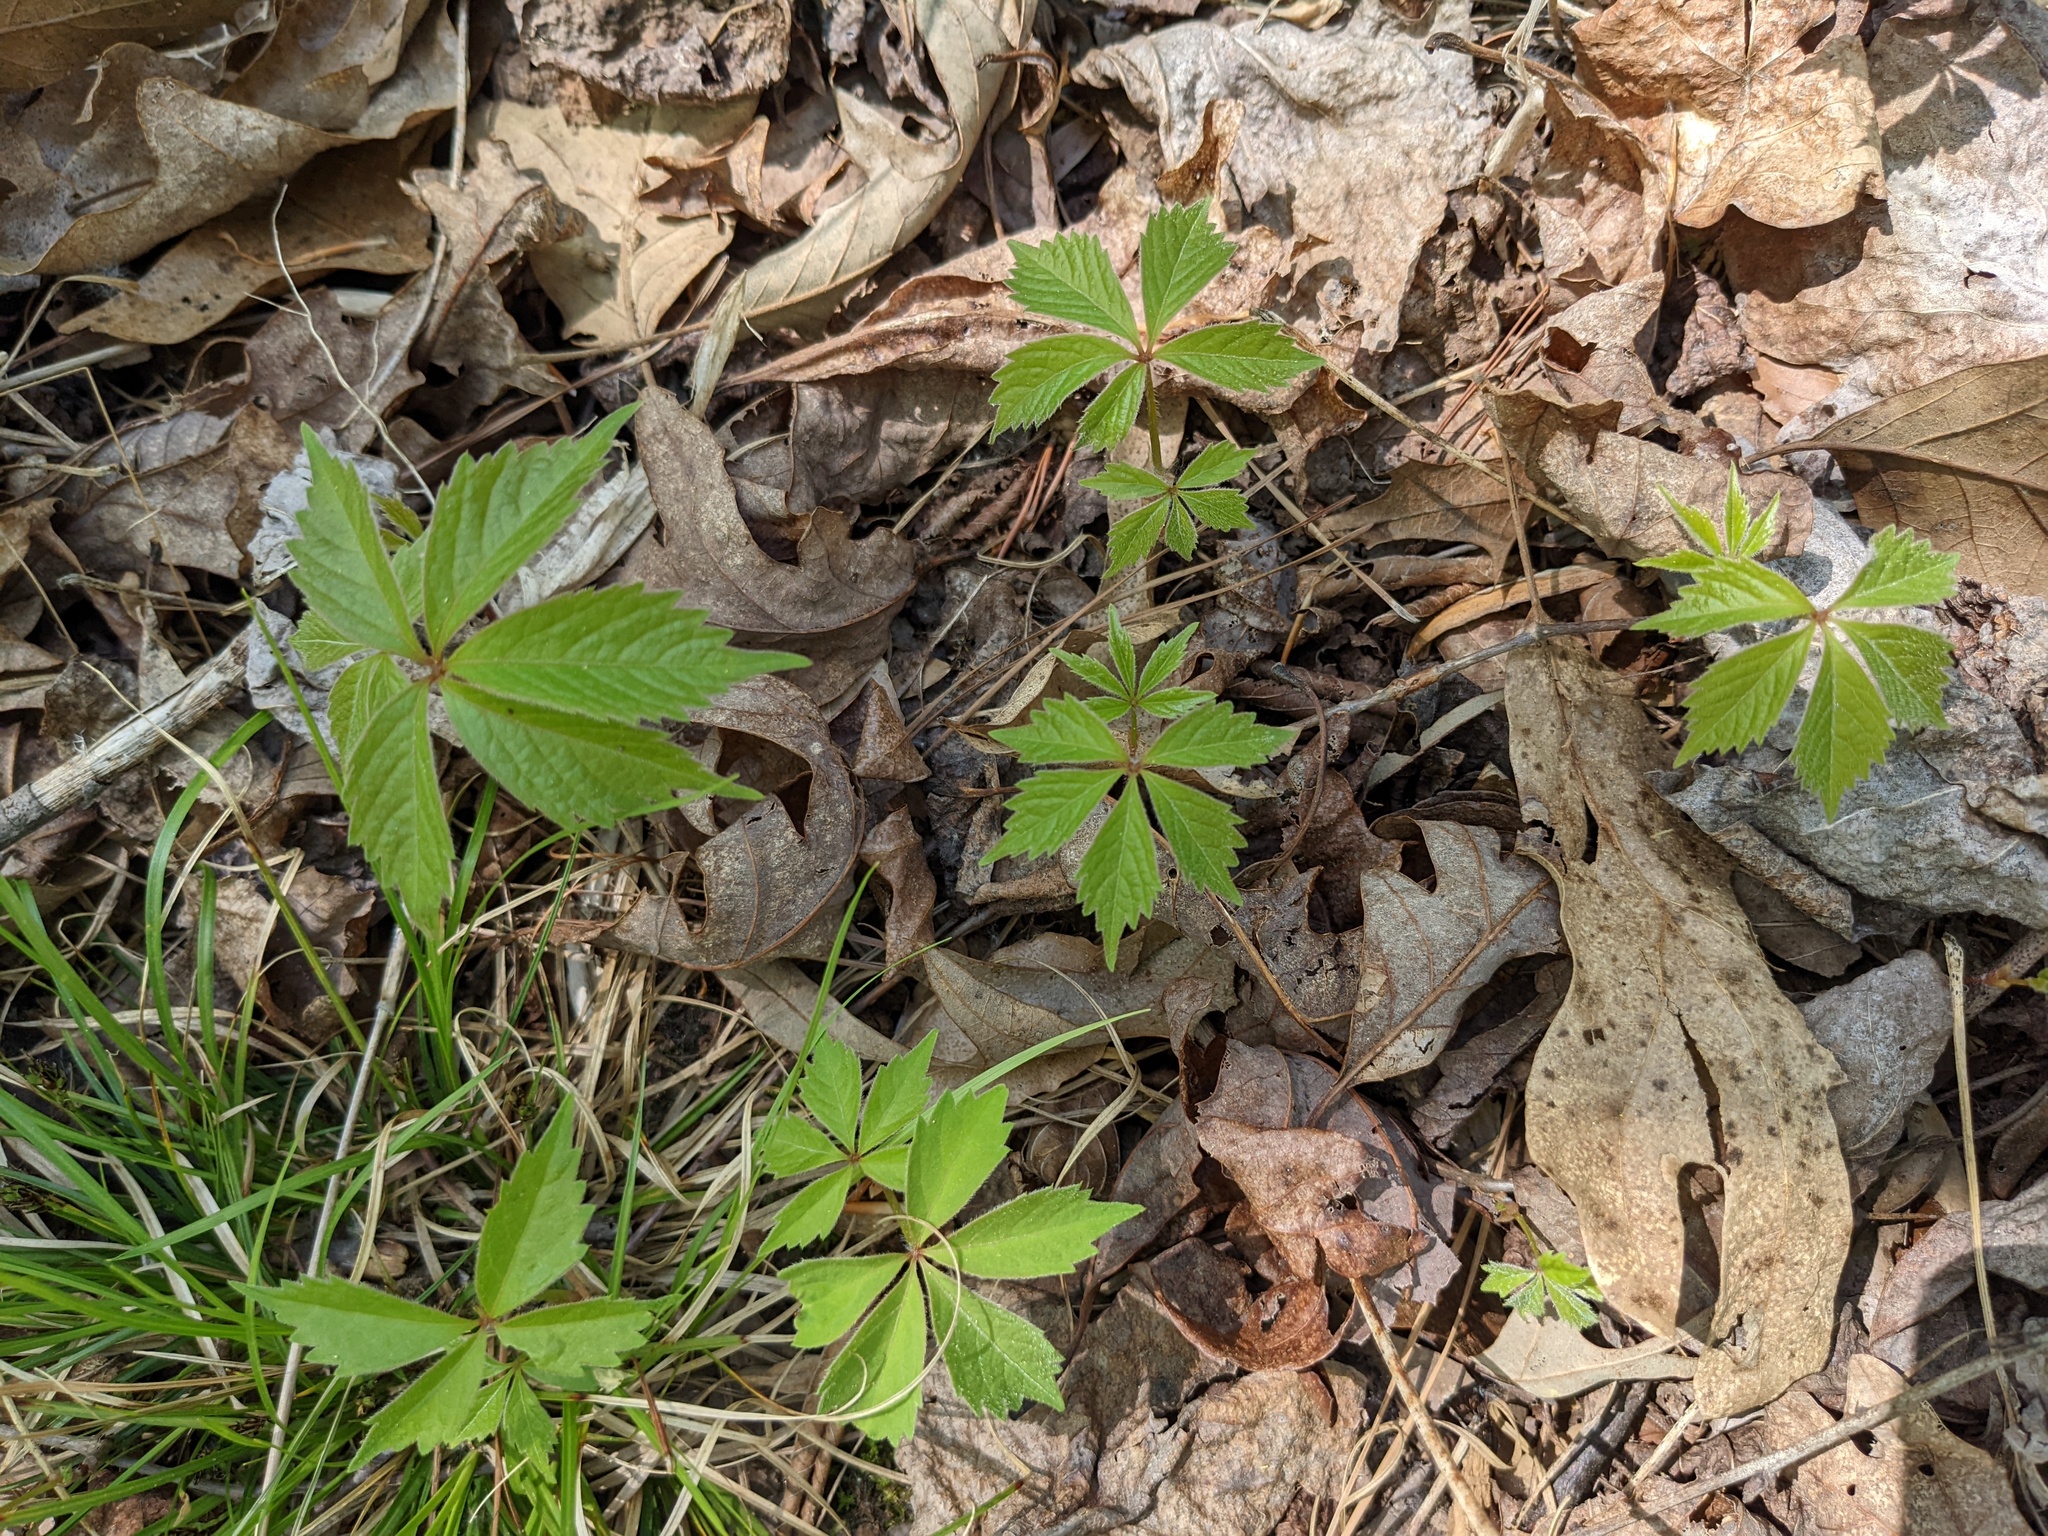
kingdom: Plantae
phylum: Tracheophyta
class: Magnoliopsida
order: Vitales
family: Vitaceae
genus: Parthenocissus
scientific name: Parthenocissus quinquefolia
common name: Virginia-creeper
